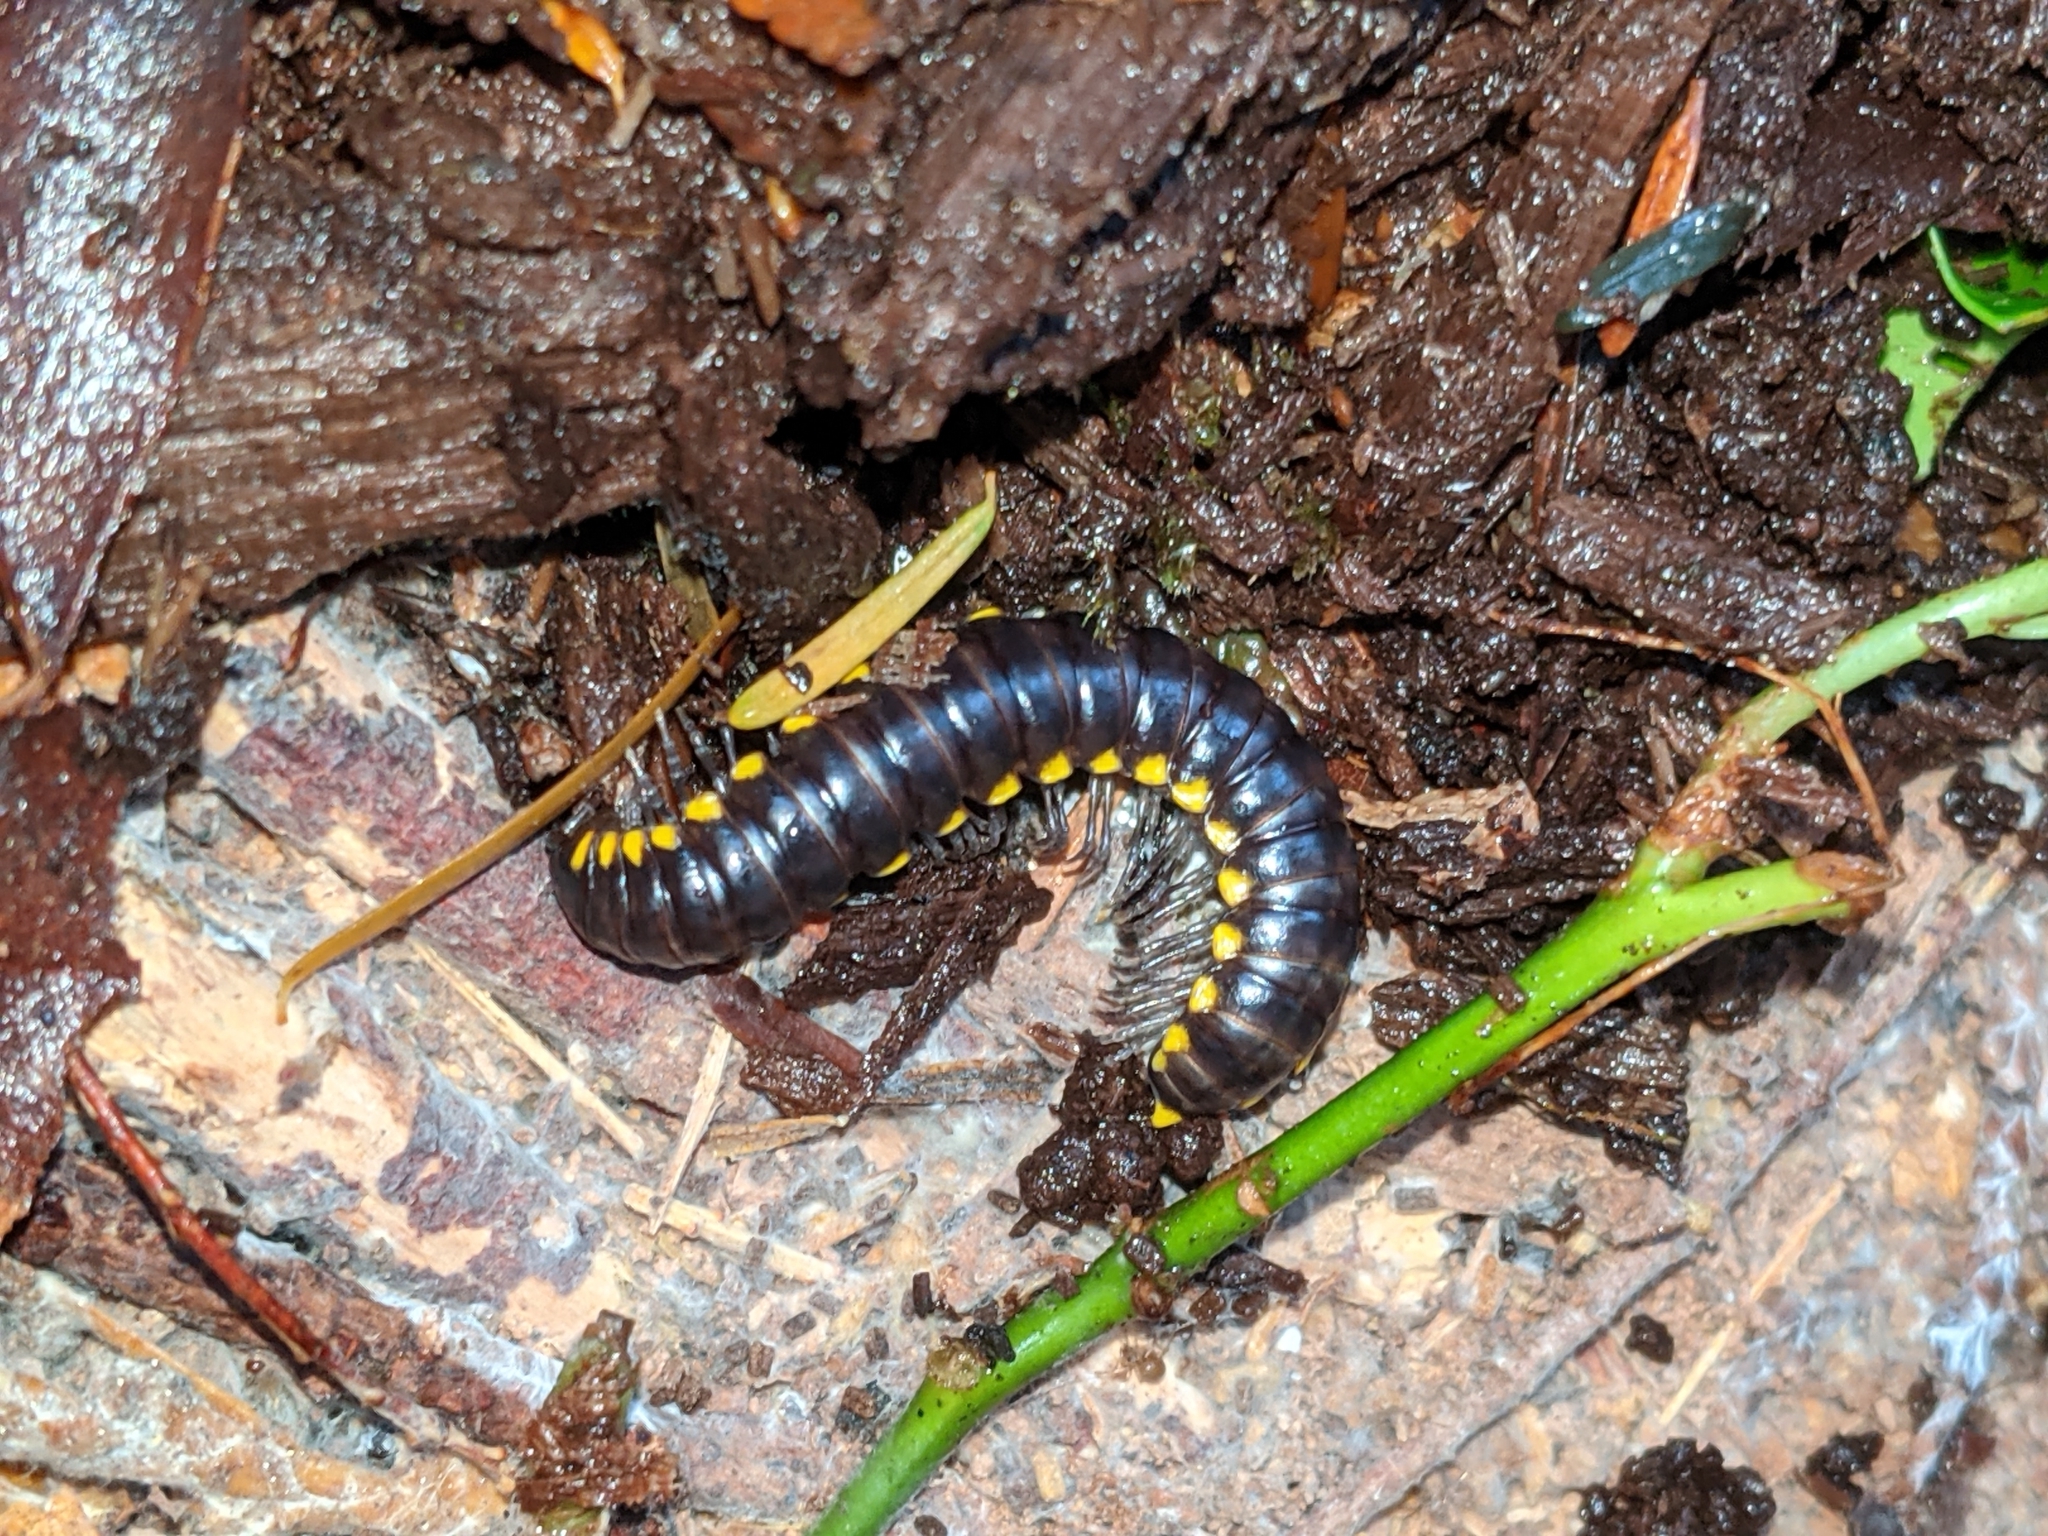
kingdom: Animalia
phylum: Arthropoda
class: Diplopoda
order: Polydesmida
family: Xystodesmidae
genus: Harpaphe
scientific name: Harpaphe haydeniana
